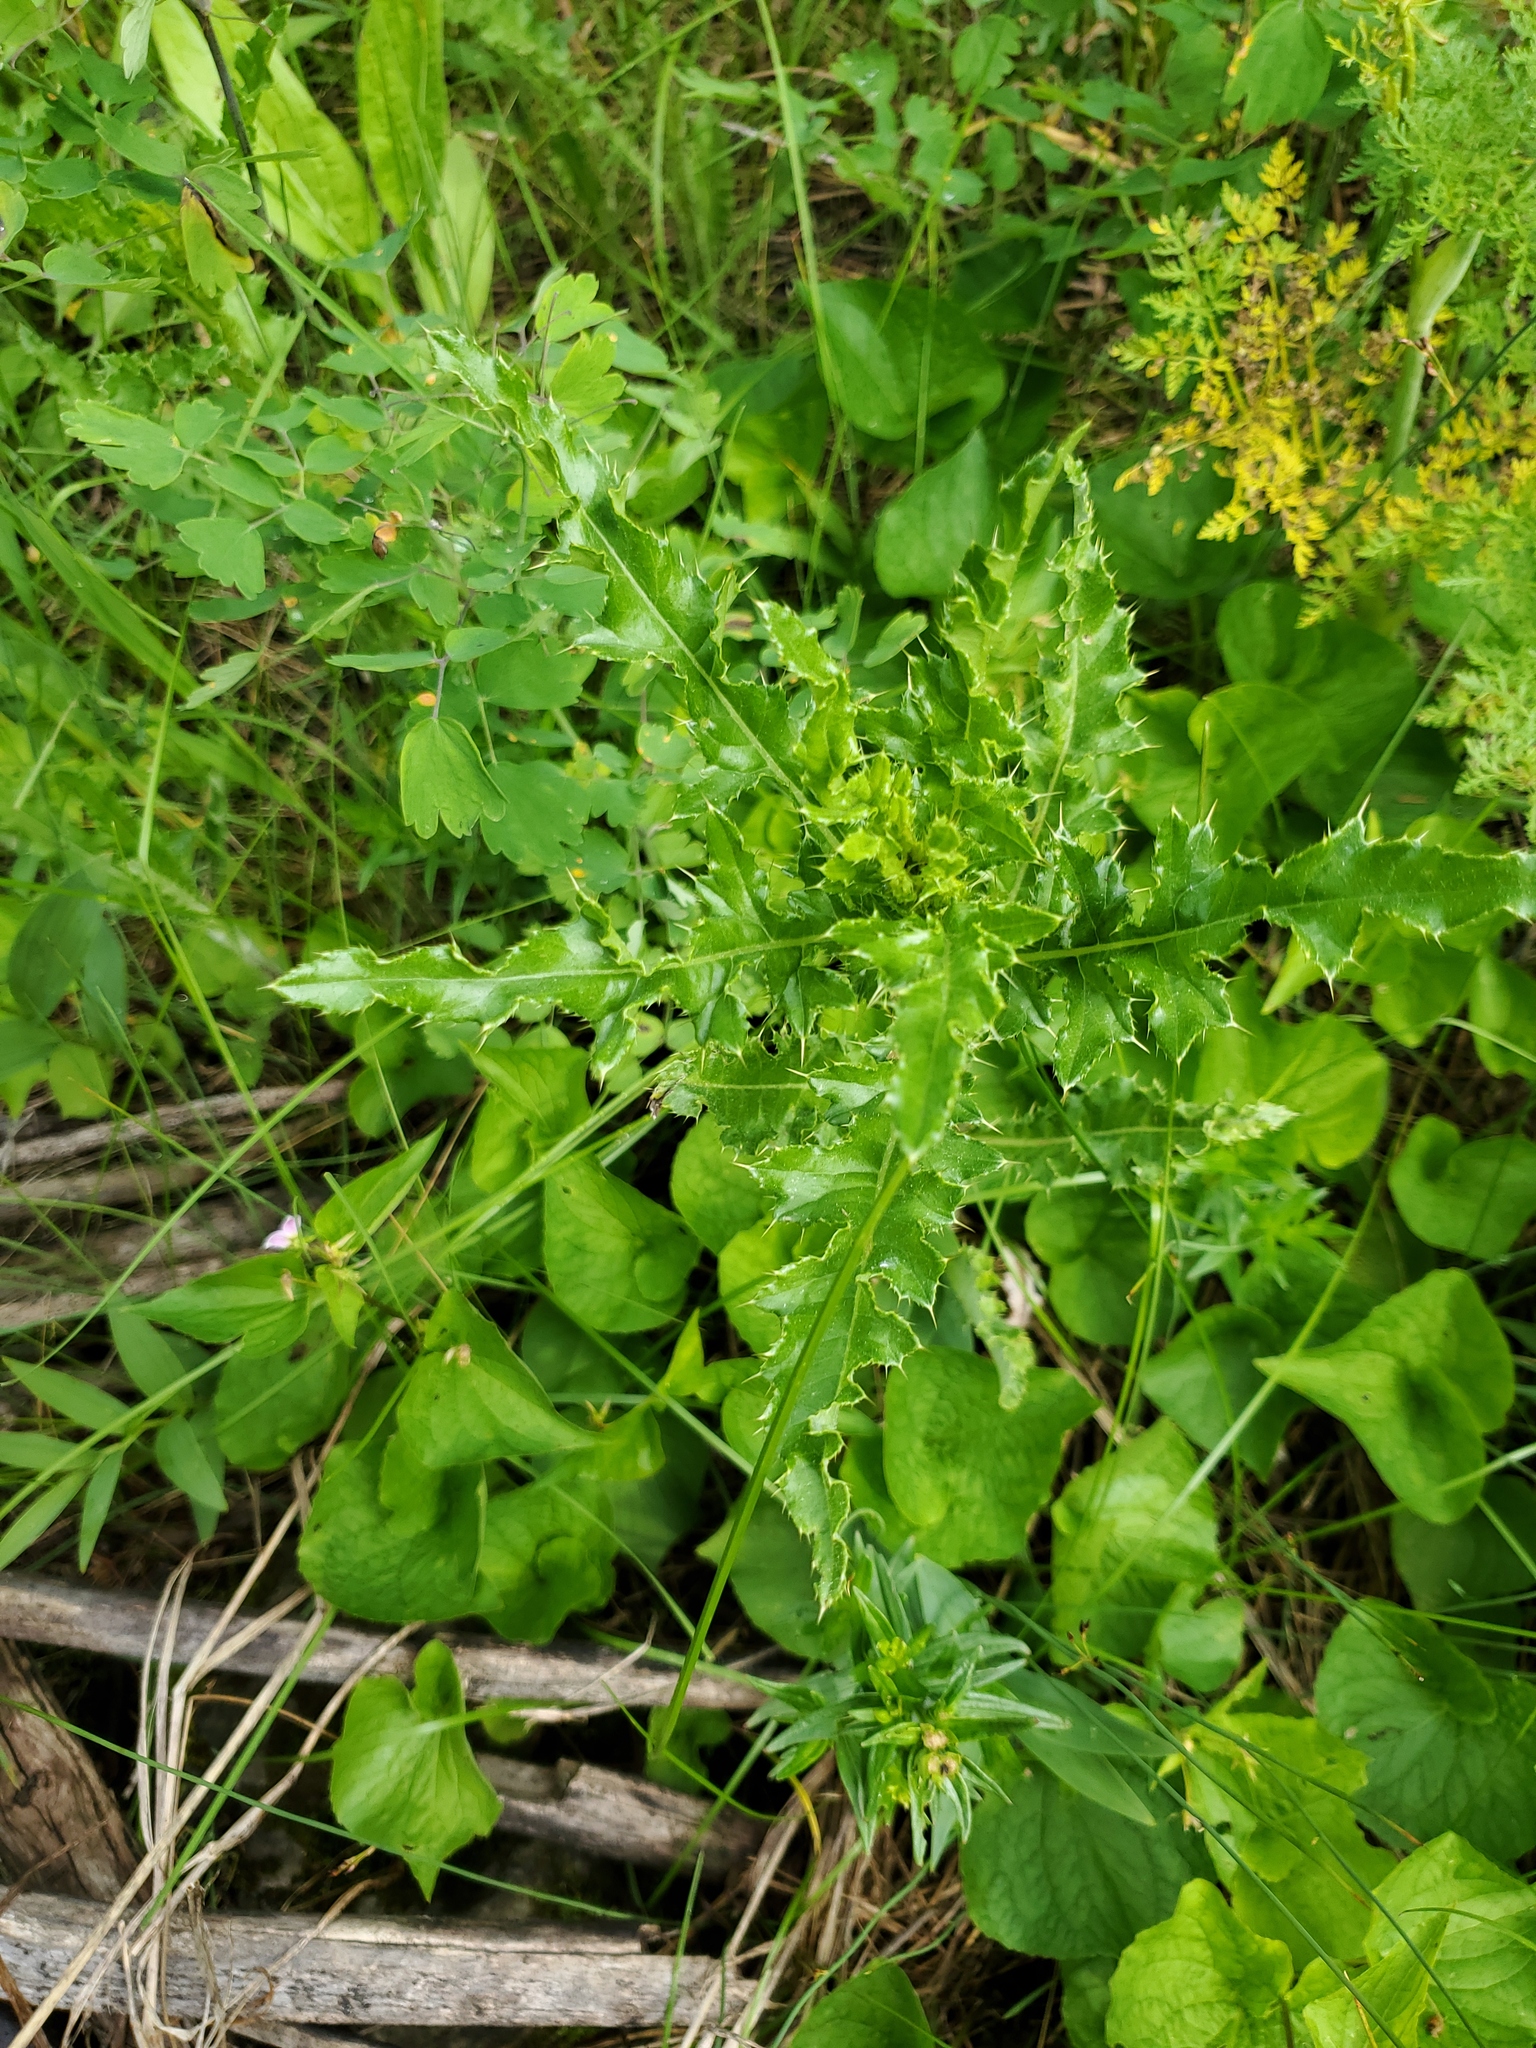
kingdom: Plantae
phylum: Tracheophyta
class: Magnoliopsida
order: Asterales
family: Asteraceae
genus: Cirsium
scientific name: Cirsium arvense
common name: Creeping thistle
